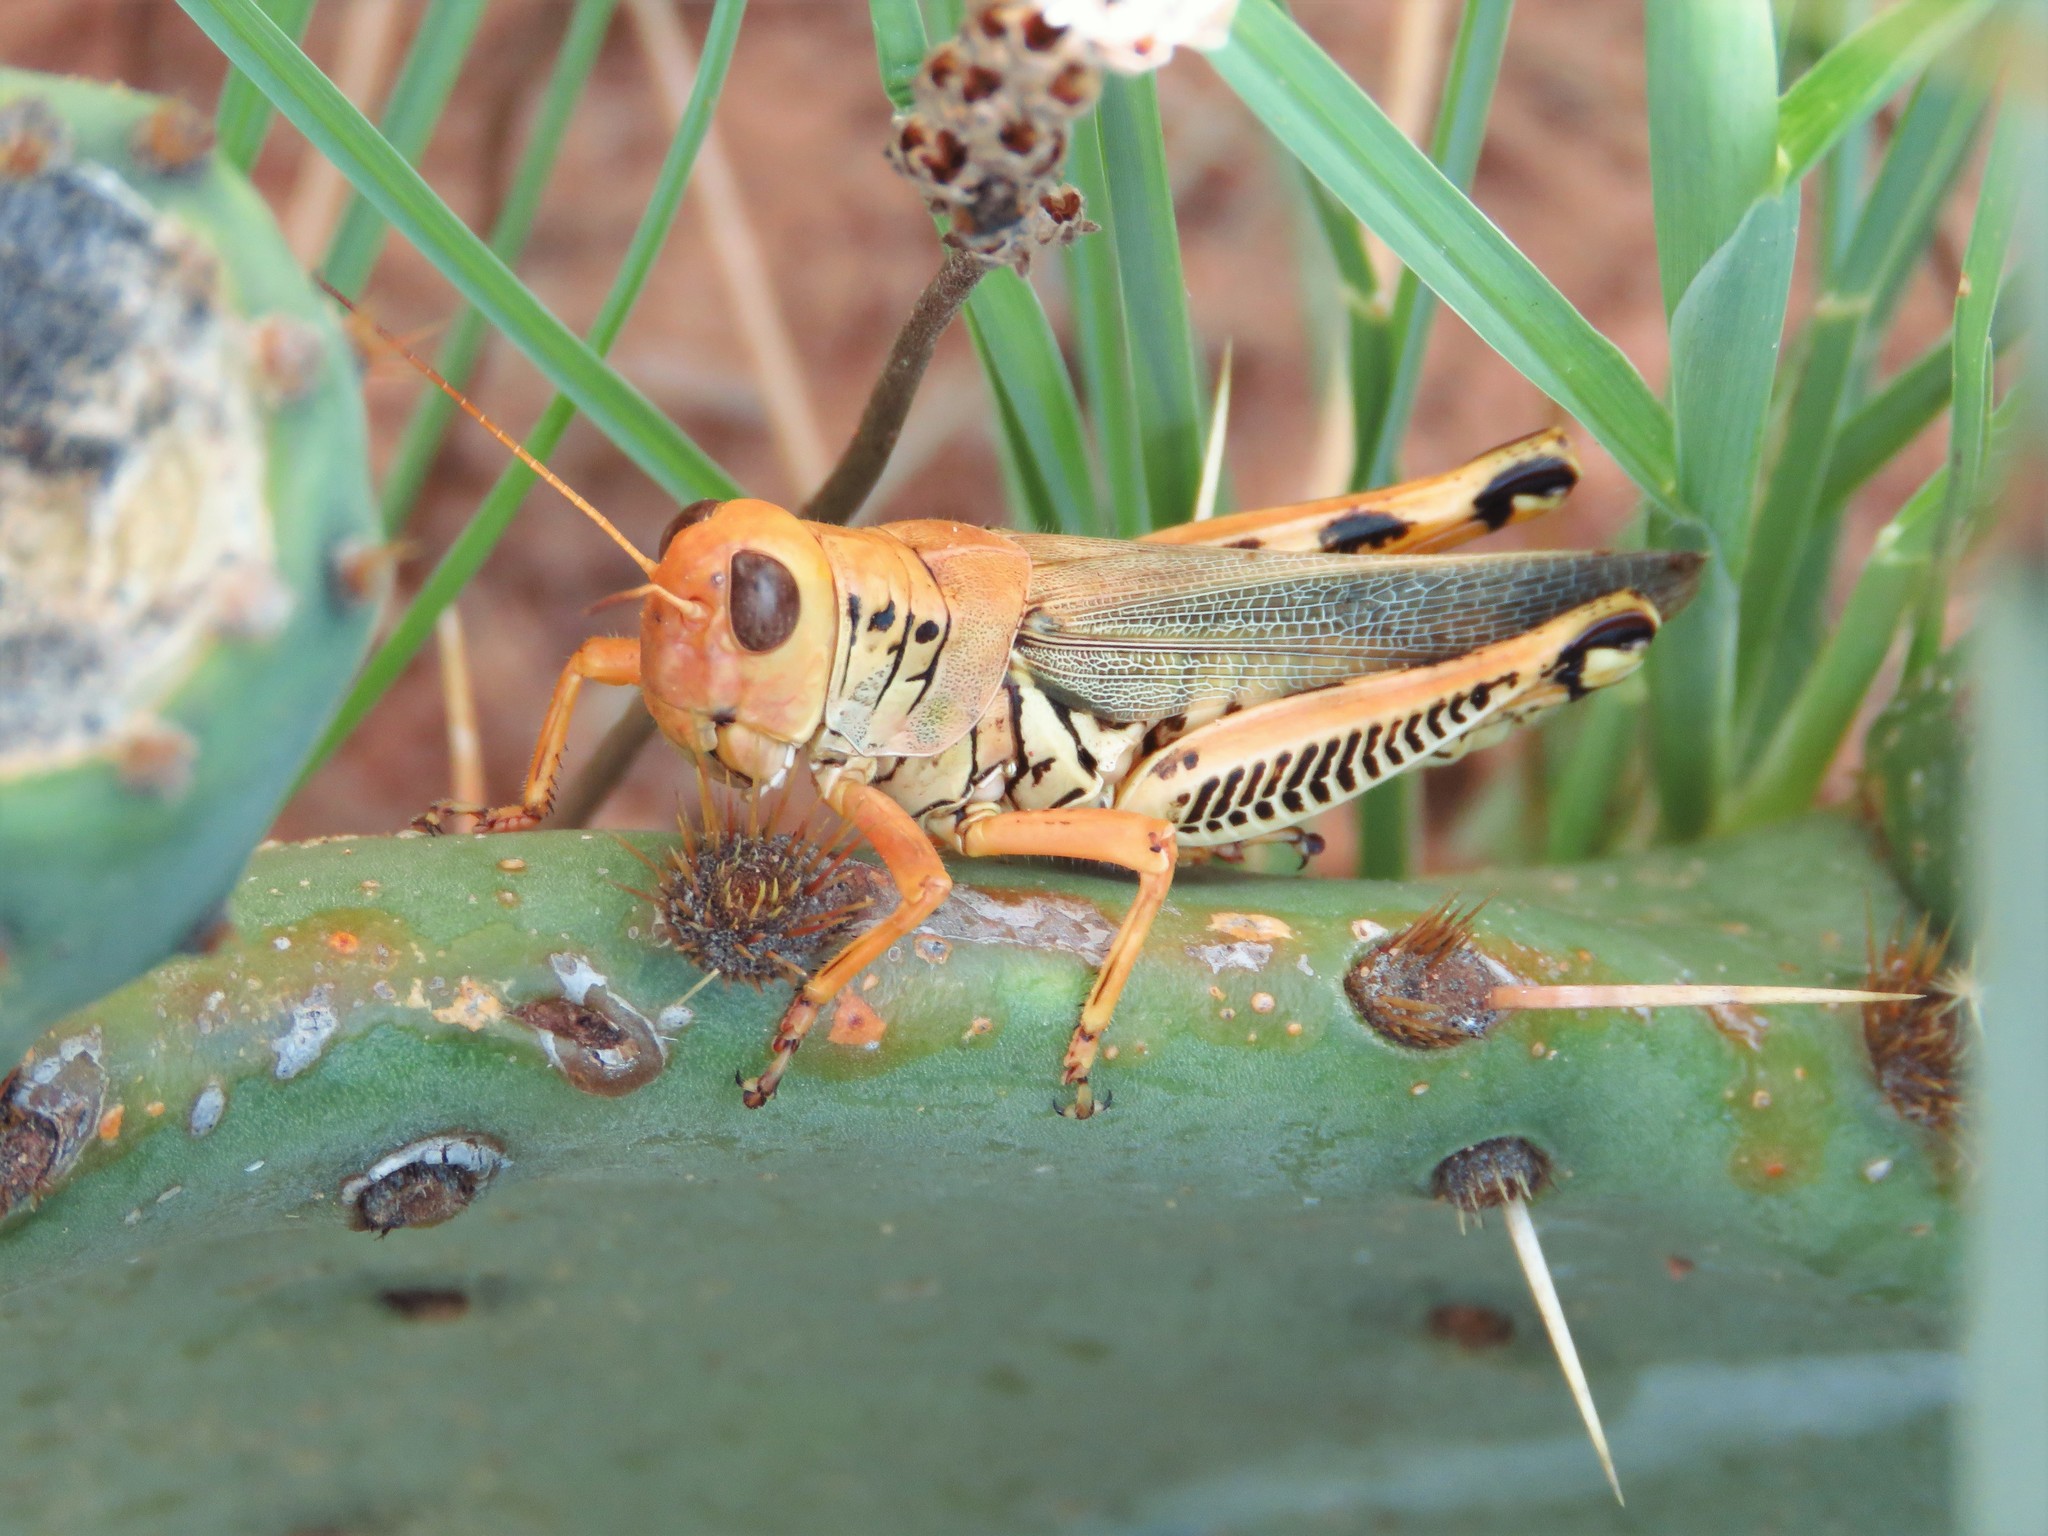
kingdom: Animalia
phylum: Arthropoda
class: Insecta
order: Orthoptera
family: Acrididae
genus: Melanoplus
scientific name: Melanoplus differentialis
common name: Differential grasshopper
